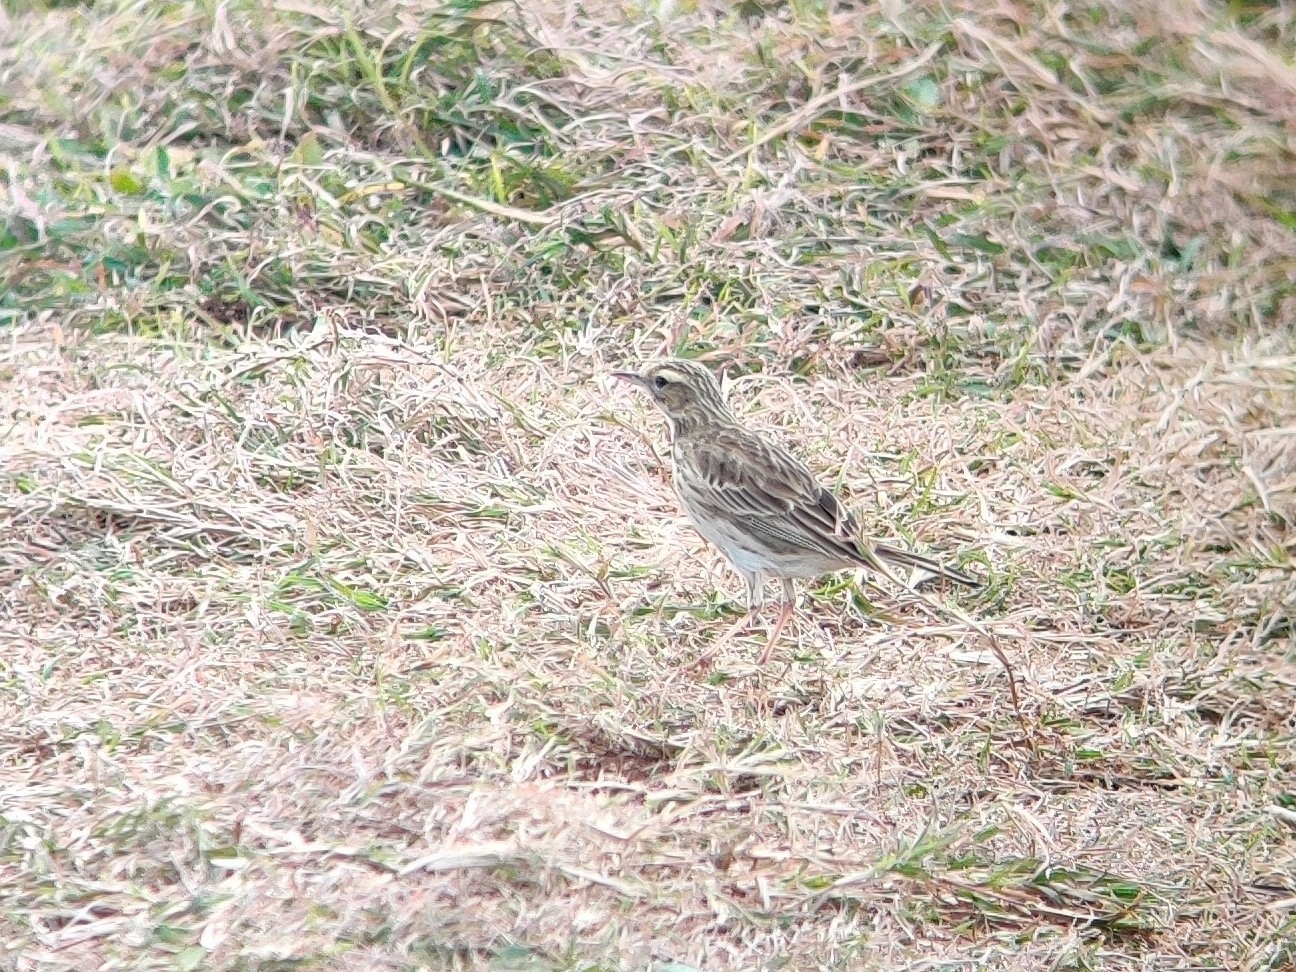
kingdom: Animalia
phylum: Chordata
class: Aves
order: Passeriformes
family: Motacillidae
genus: Anthus
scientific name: Anthus australis
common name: Australian pipit
